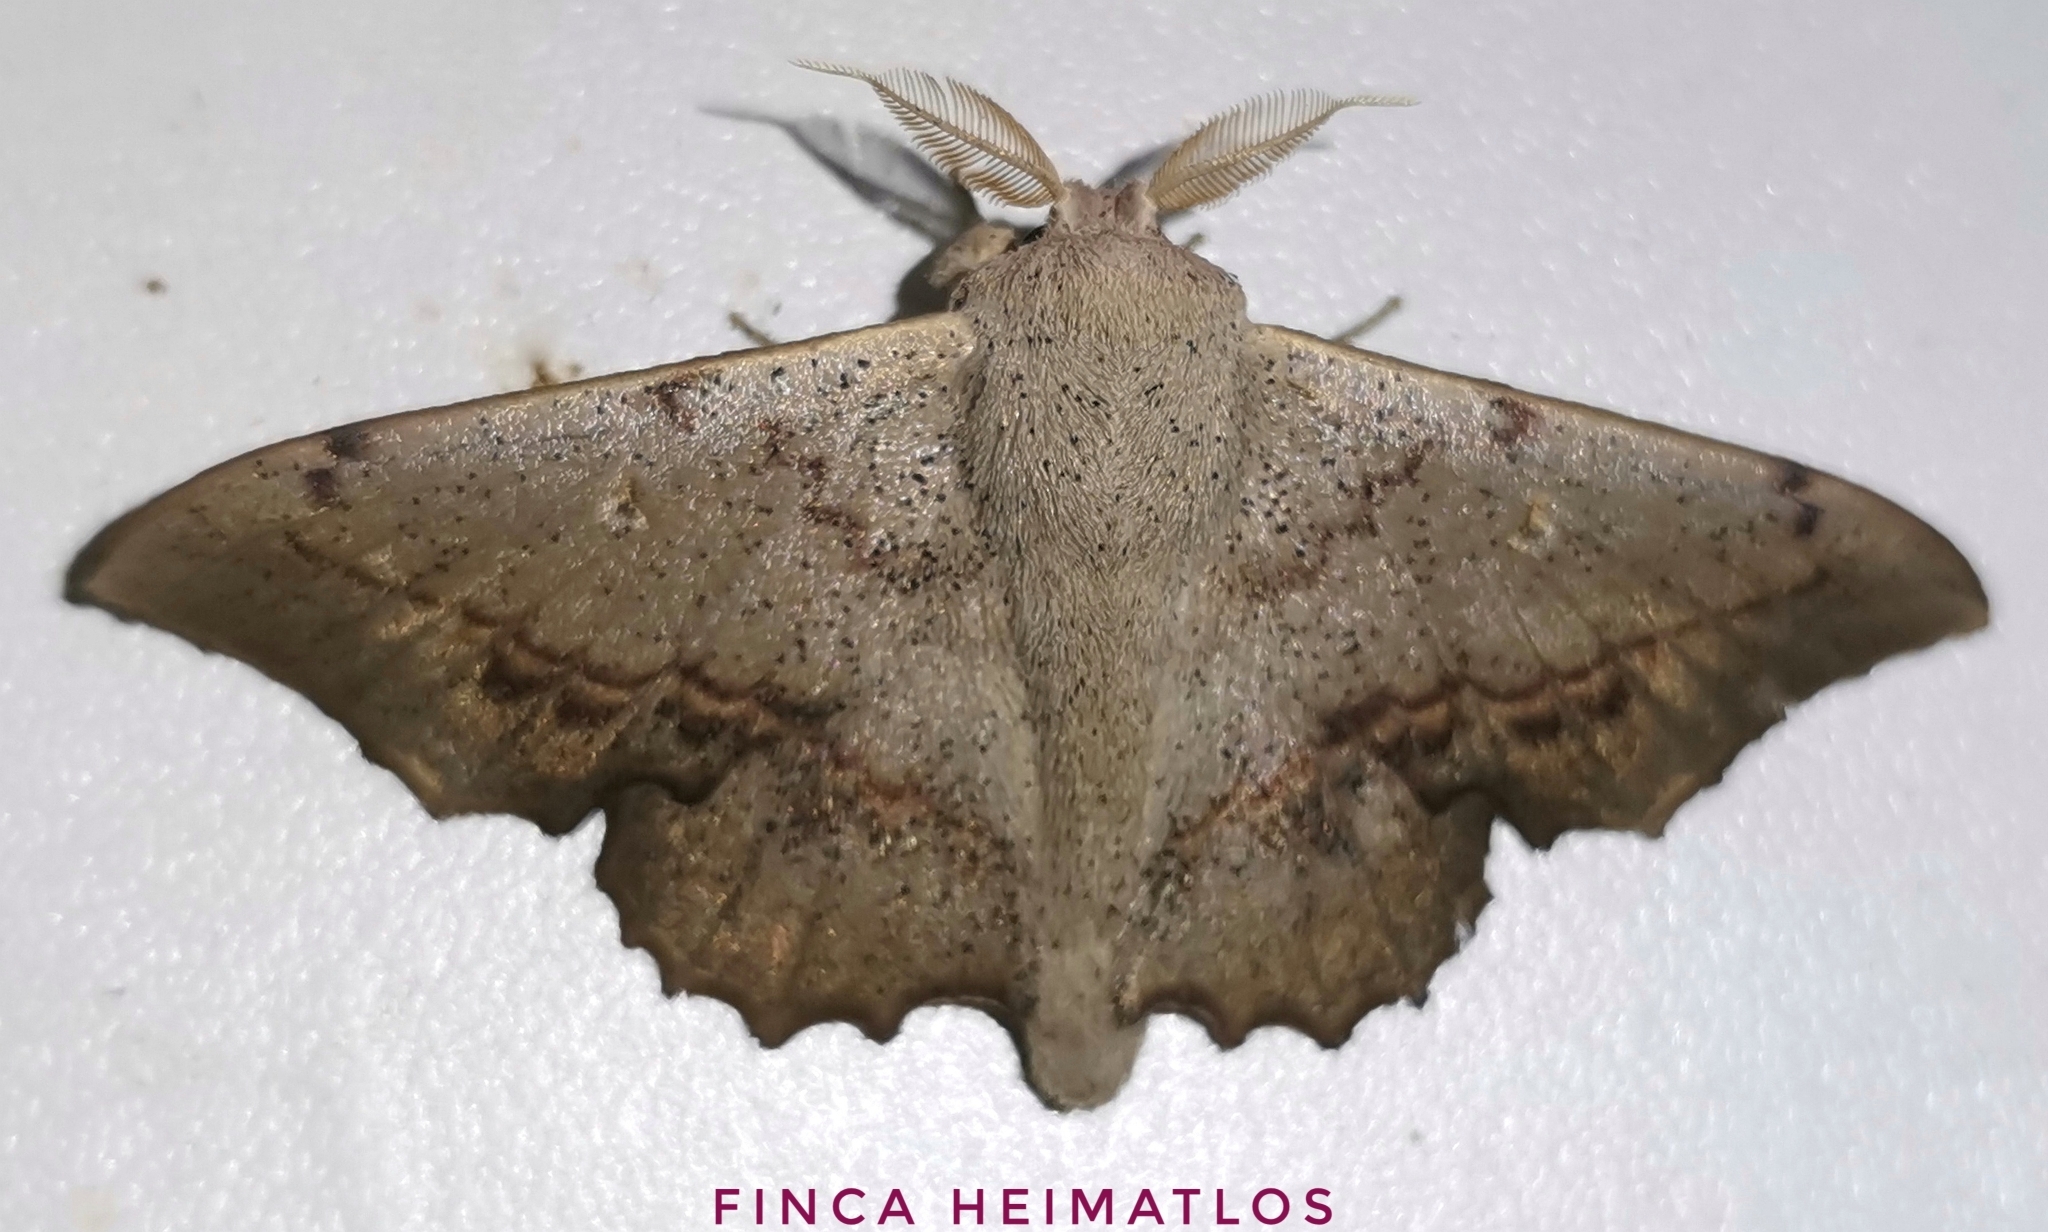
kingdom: Animalia
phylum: Arthropoda
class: Insecta
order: Lepidoptera
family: Mimallonidae
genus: Mimallo
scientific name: Mimallo brosica
